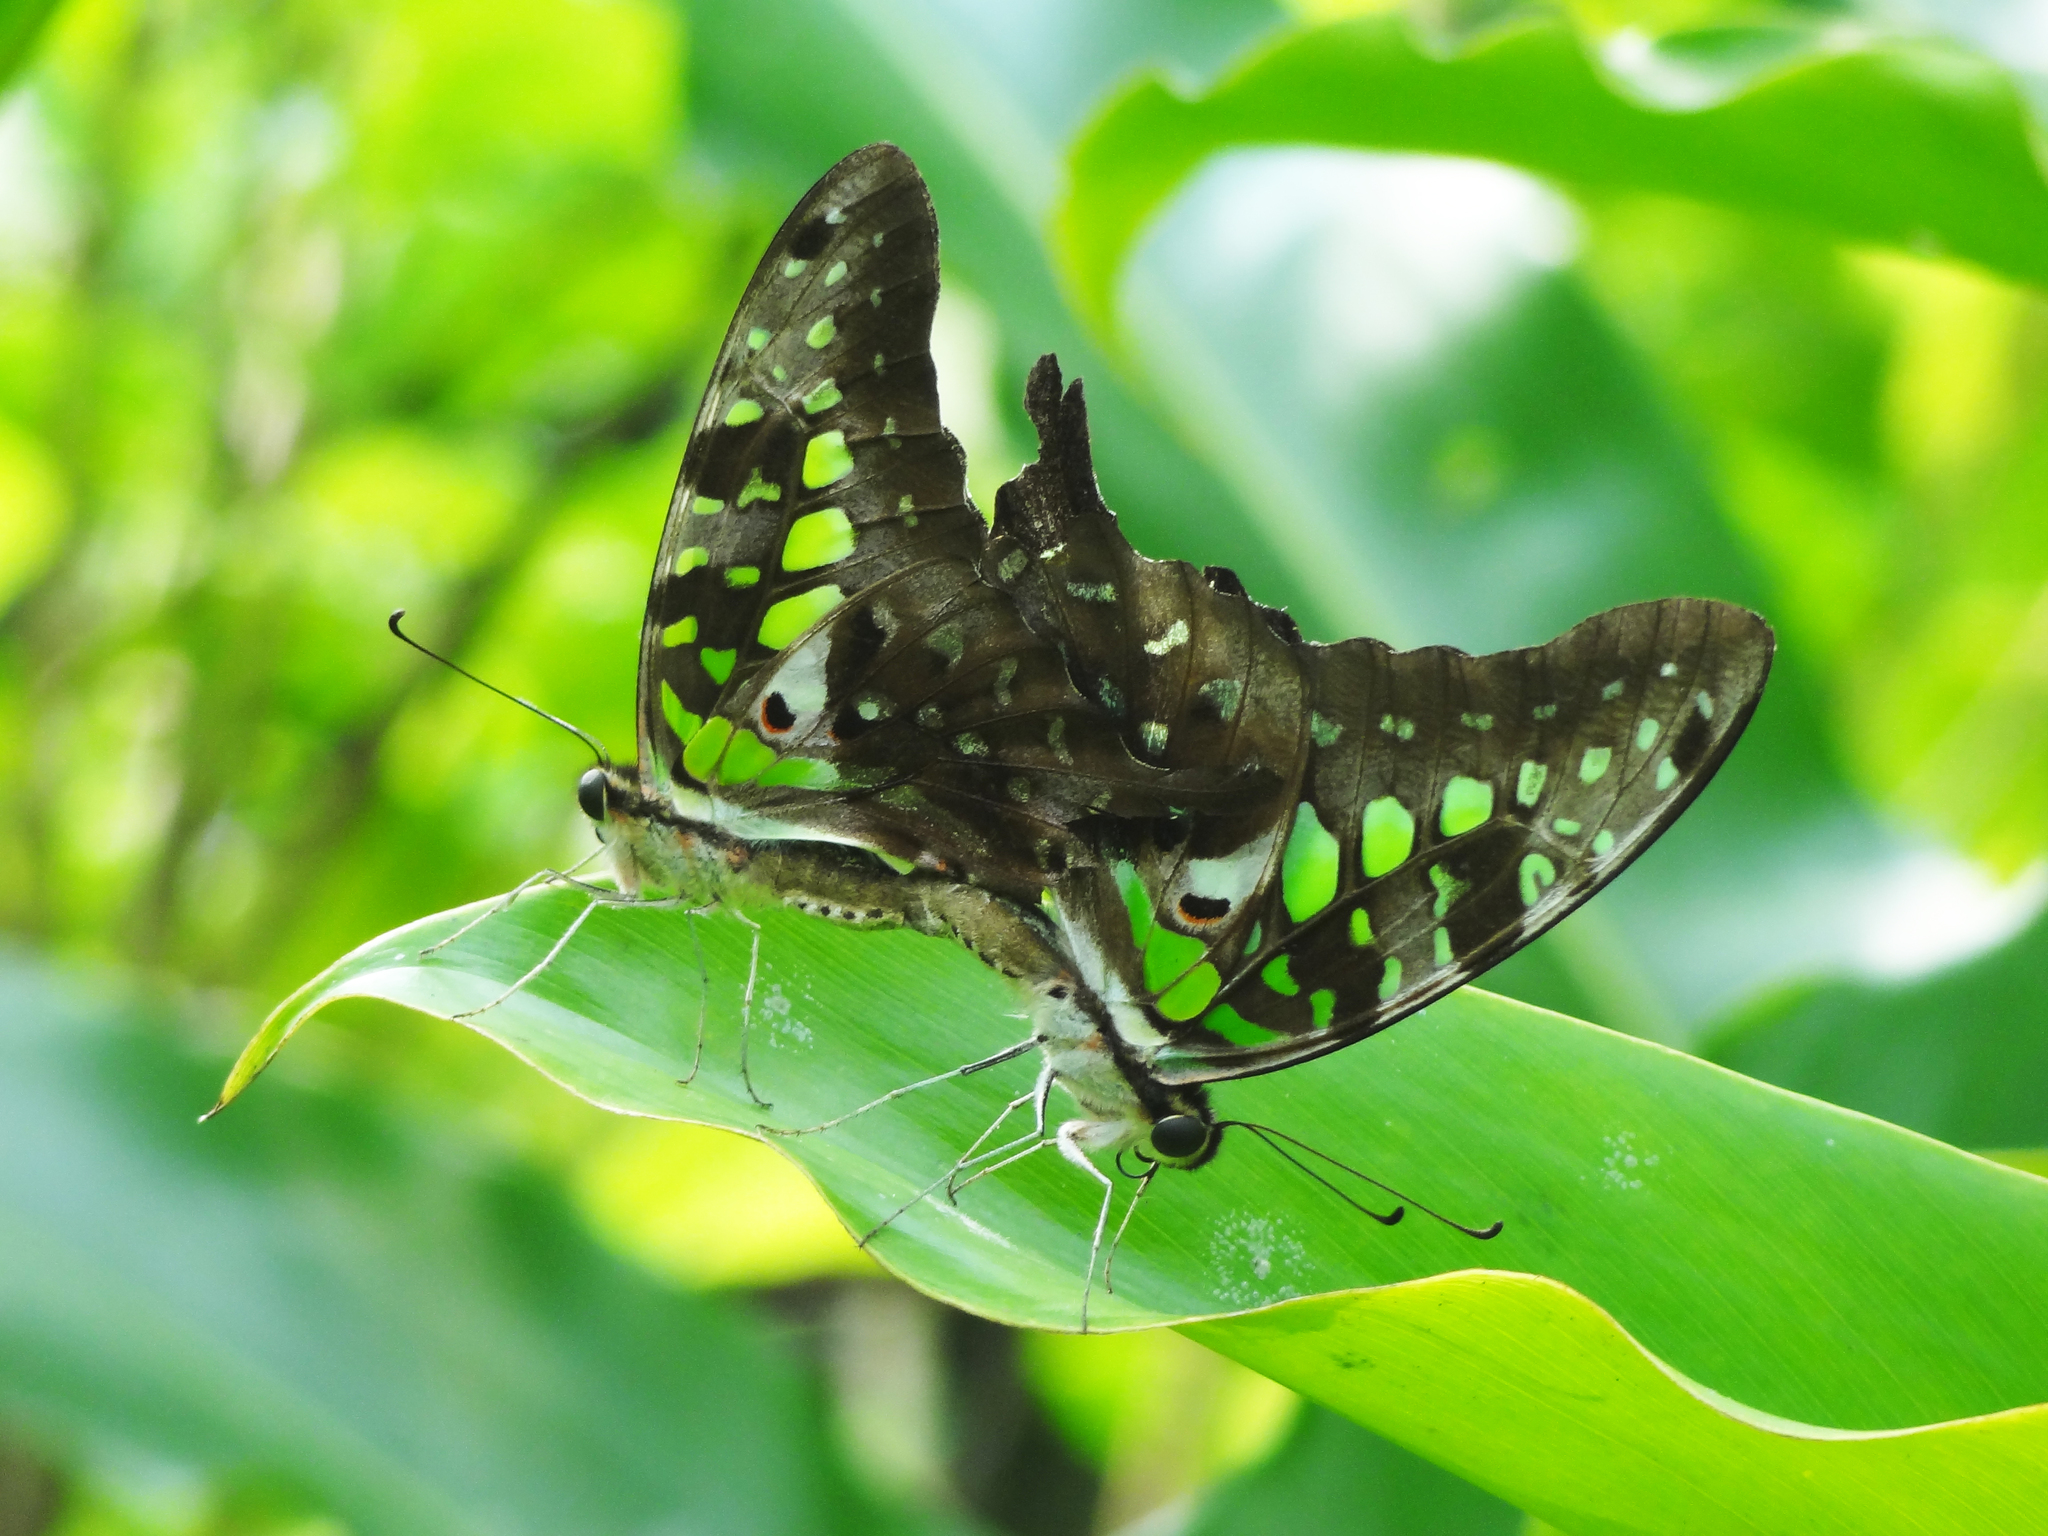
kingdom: Animalia
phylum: Arthropoda
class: Insecta
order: Lepidoptera
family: Papilionidae
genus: Graphium
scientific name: Graphium agamemnon
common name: Tailed jay
